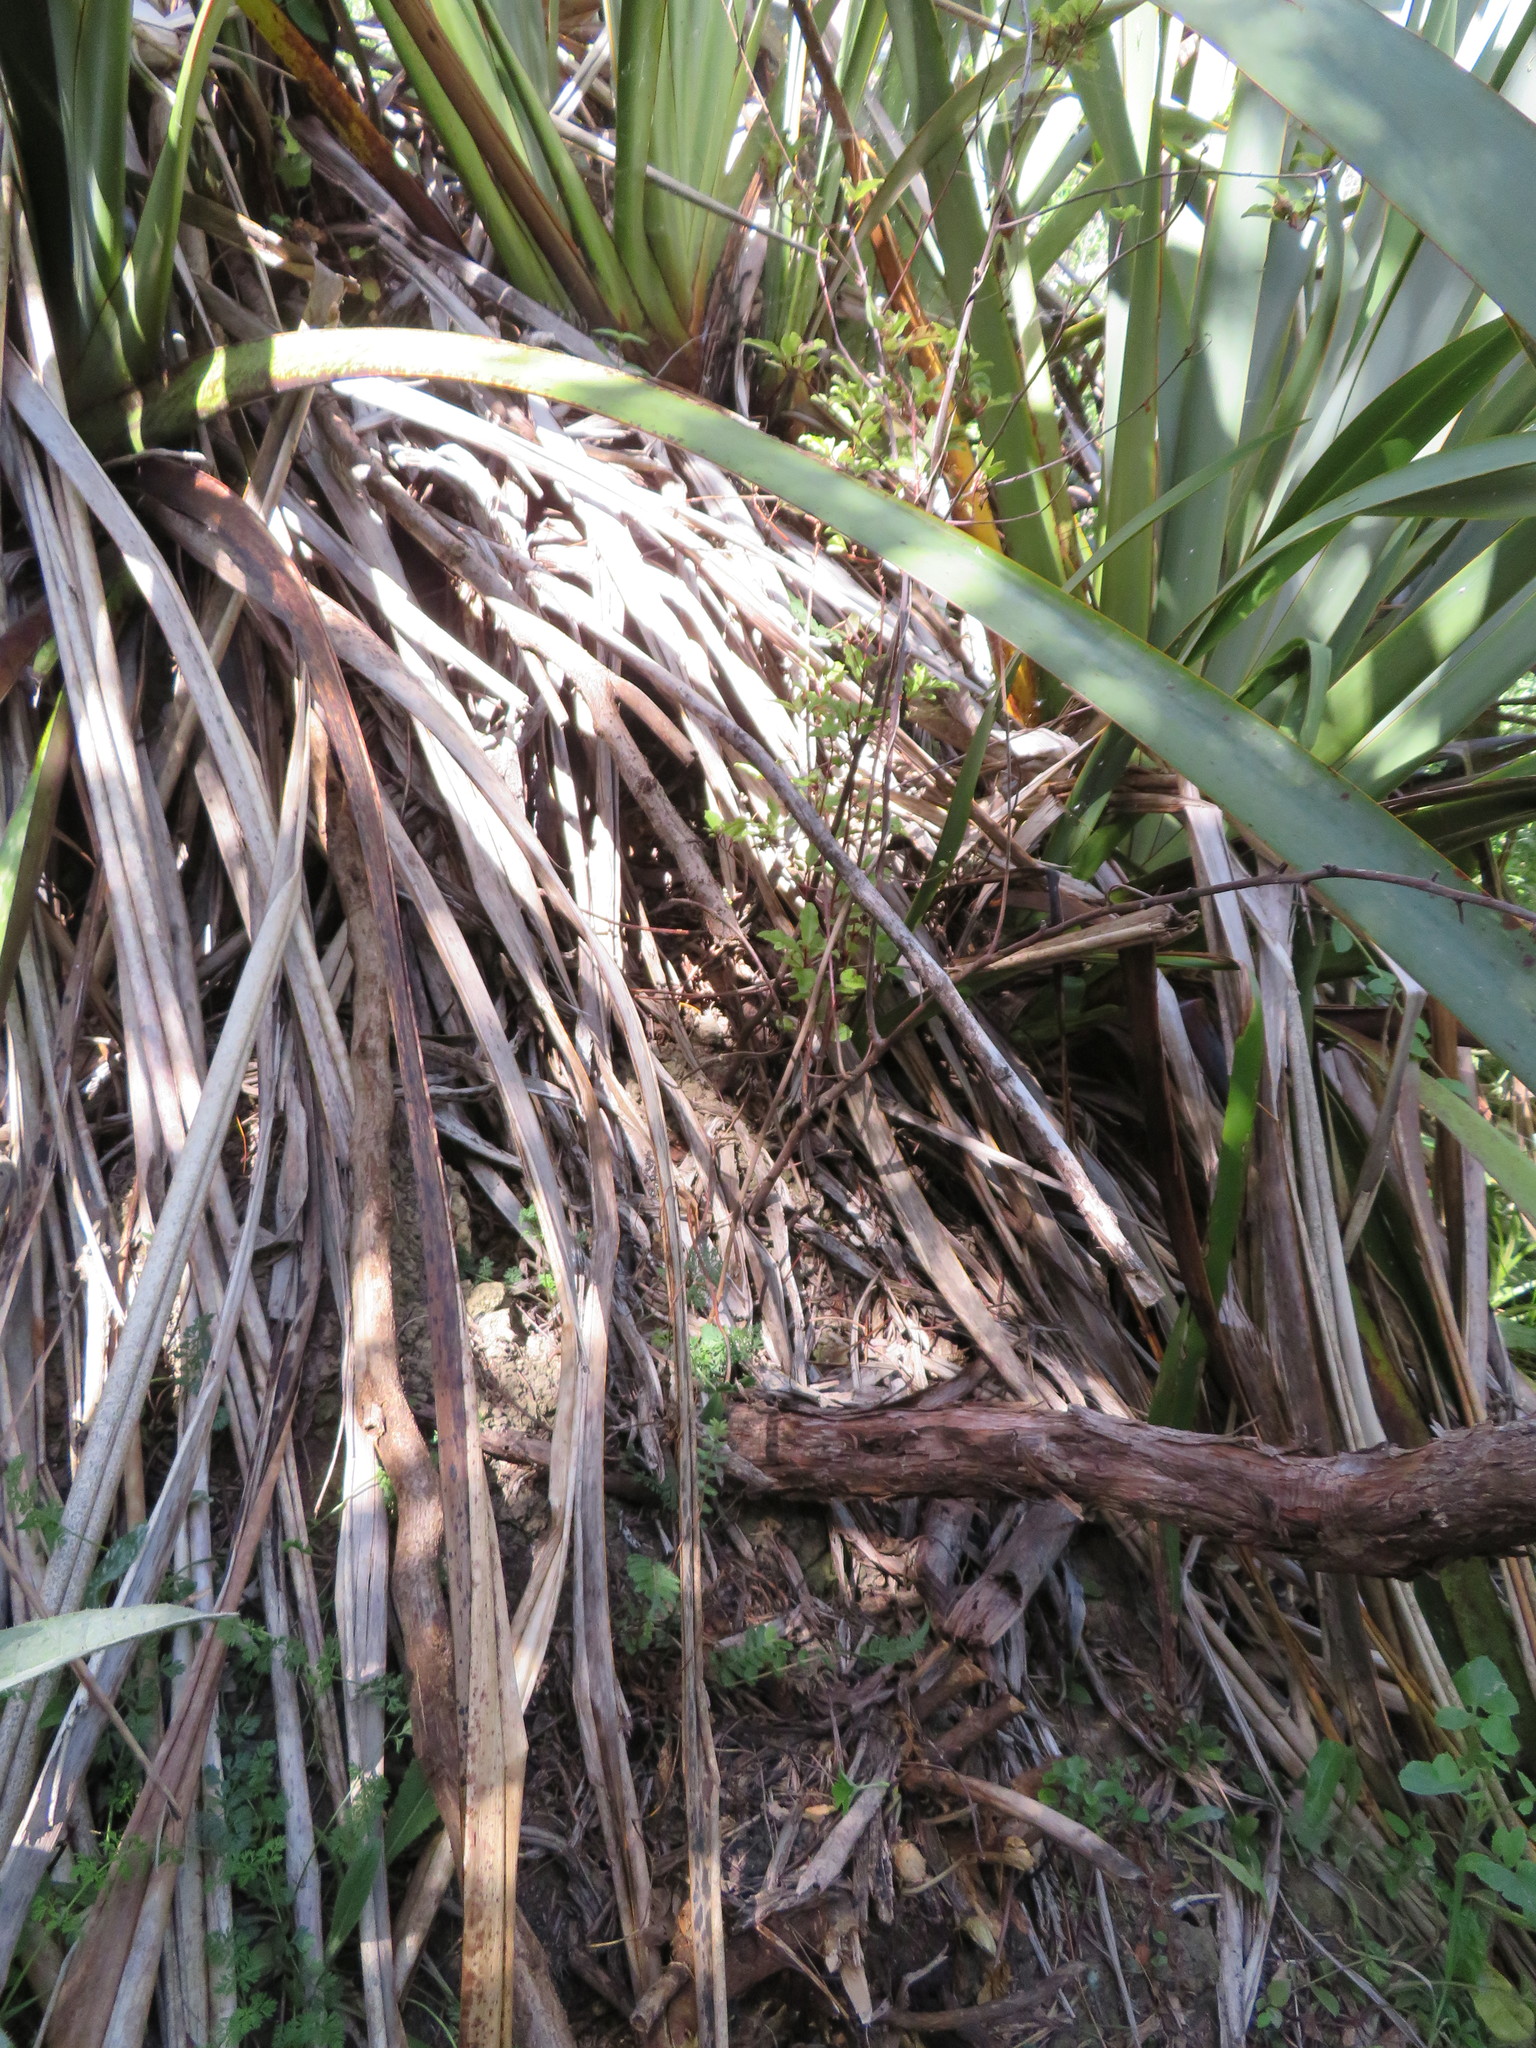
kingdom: Plantae
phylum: Tracheophyta
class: Polypodiopsida
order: Polypodiales
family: Blechnaceae
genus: Doodia
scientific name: Doodia australis
